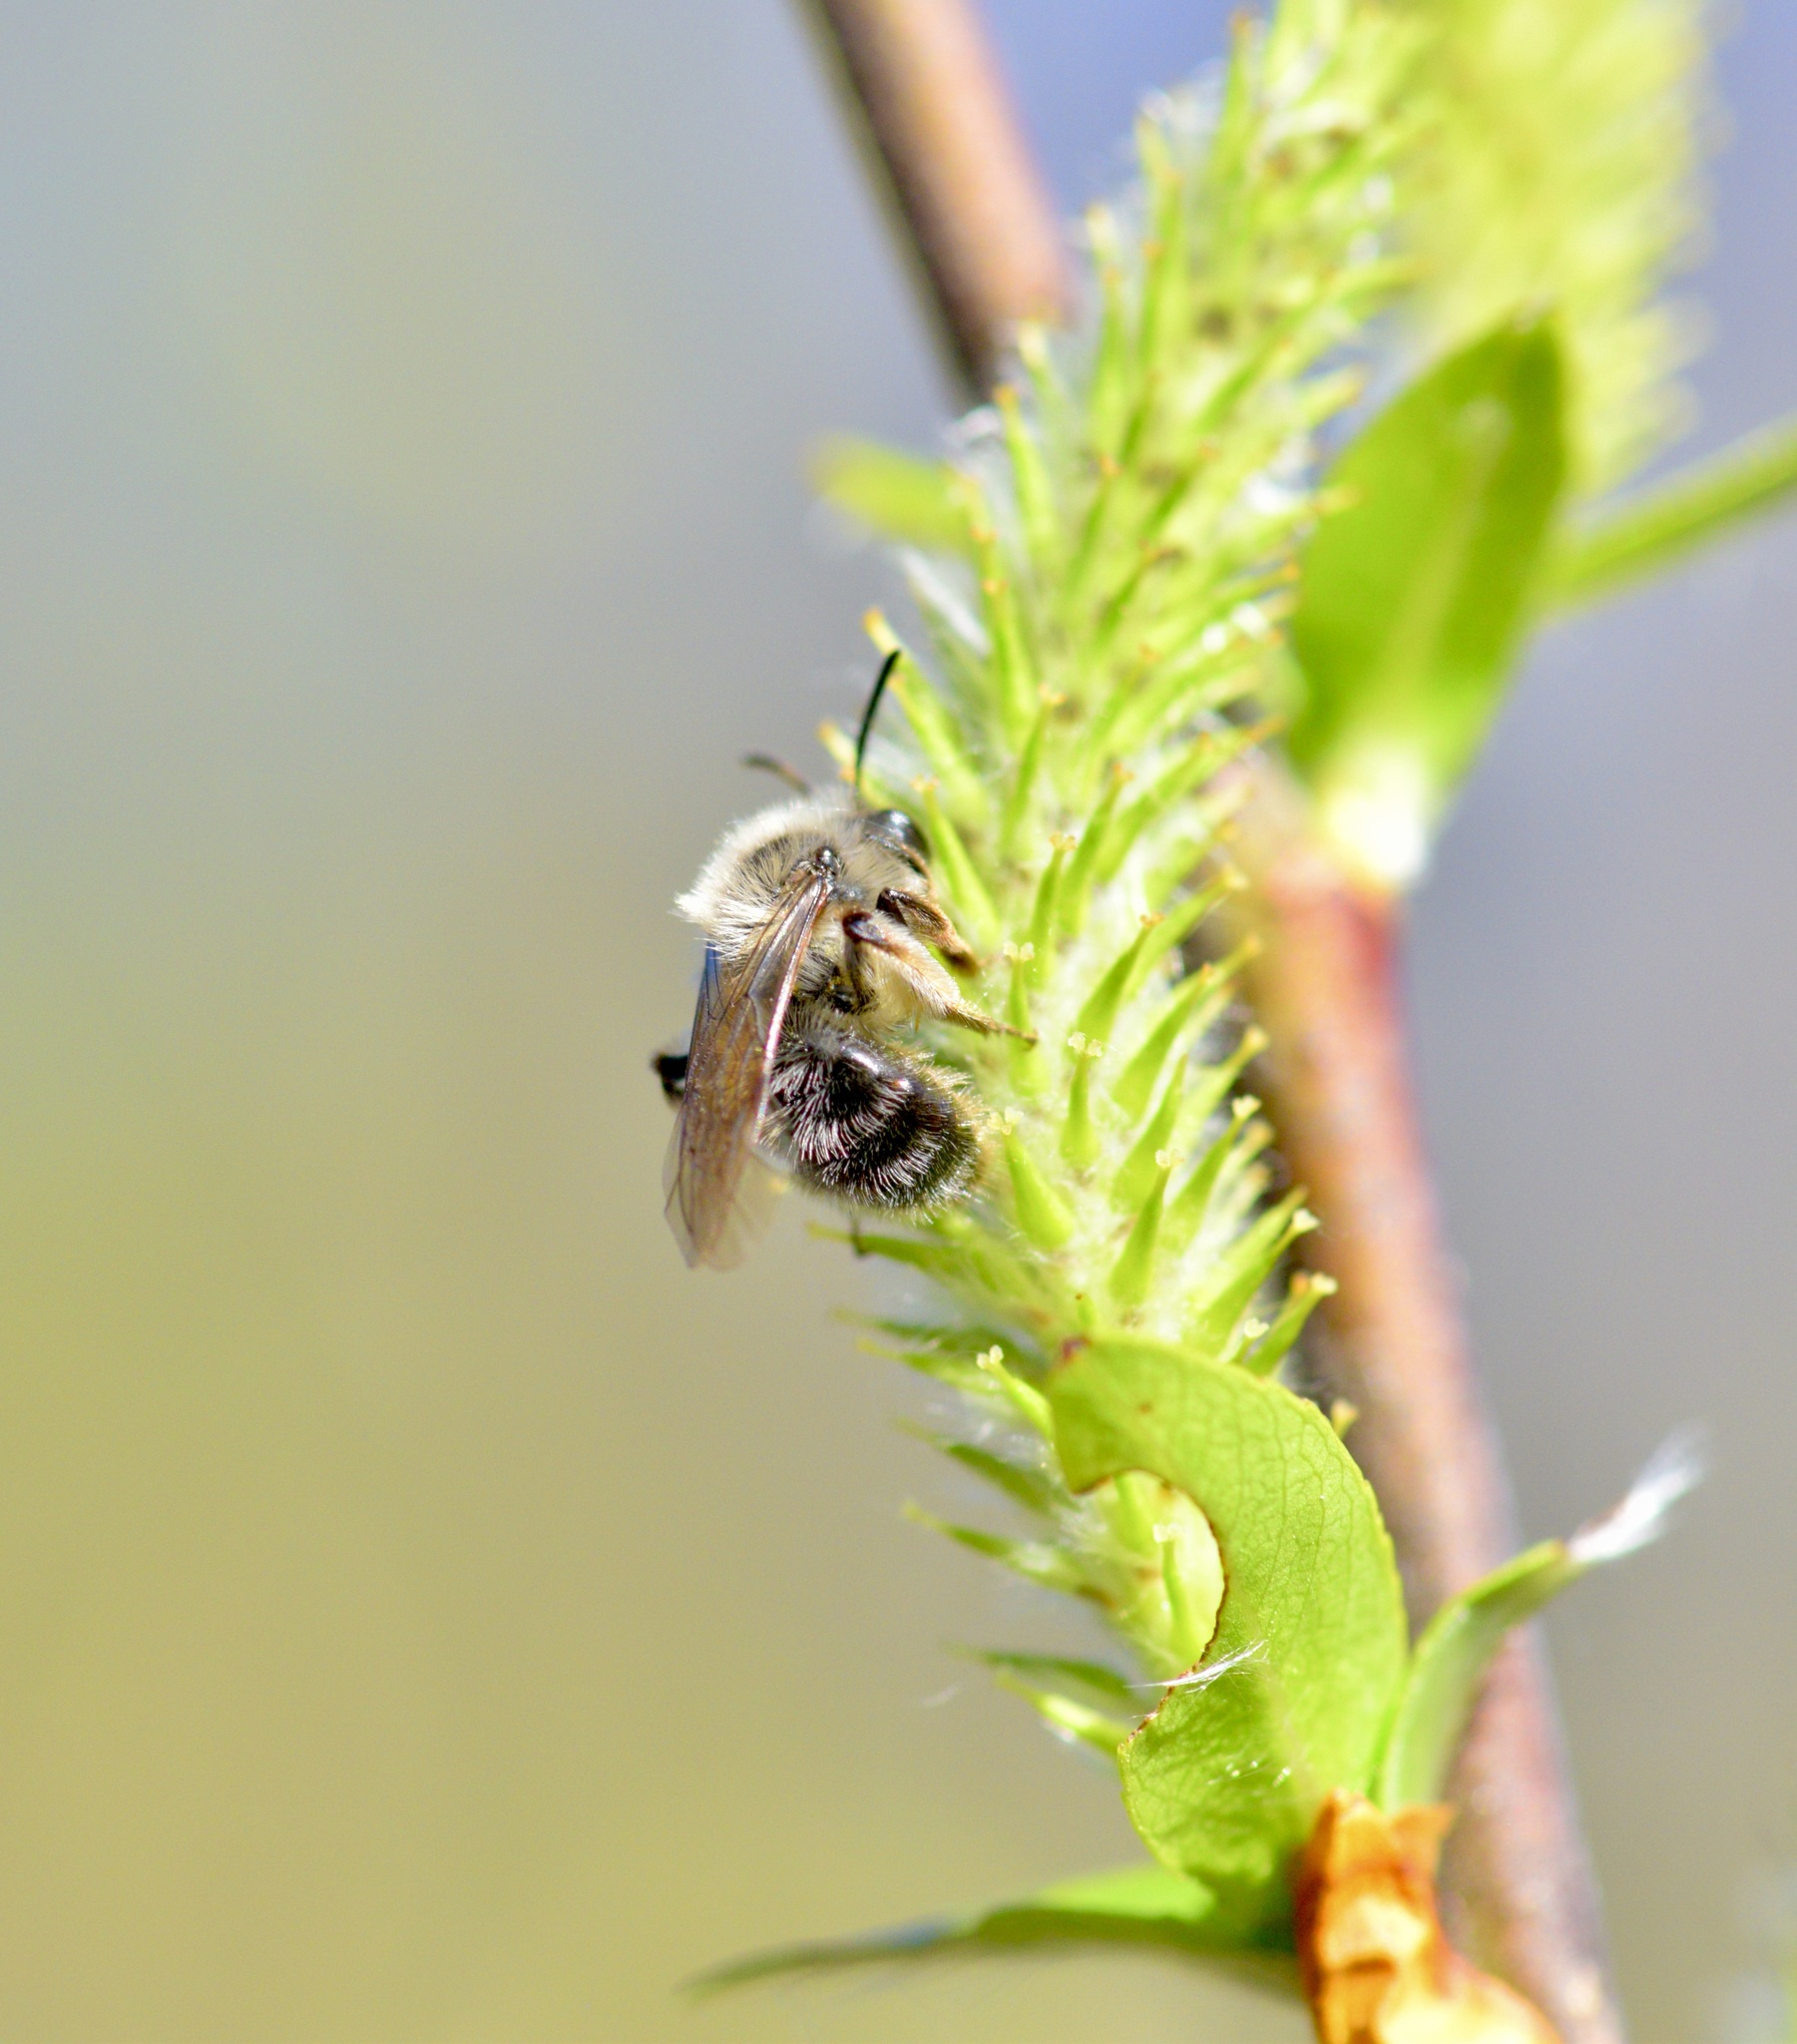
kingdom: Animalia
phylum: Arthropoda
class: Insecta
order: Hymenoptera
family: Andrenidae
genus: Andrena
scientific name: Andrena frigida
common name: Frigid mining bee
